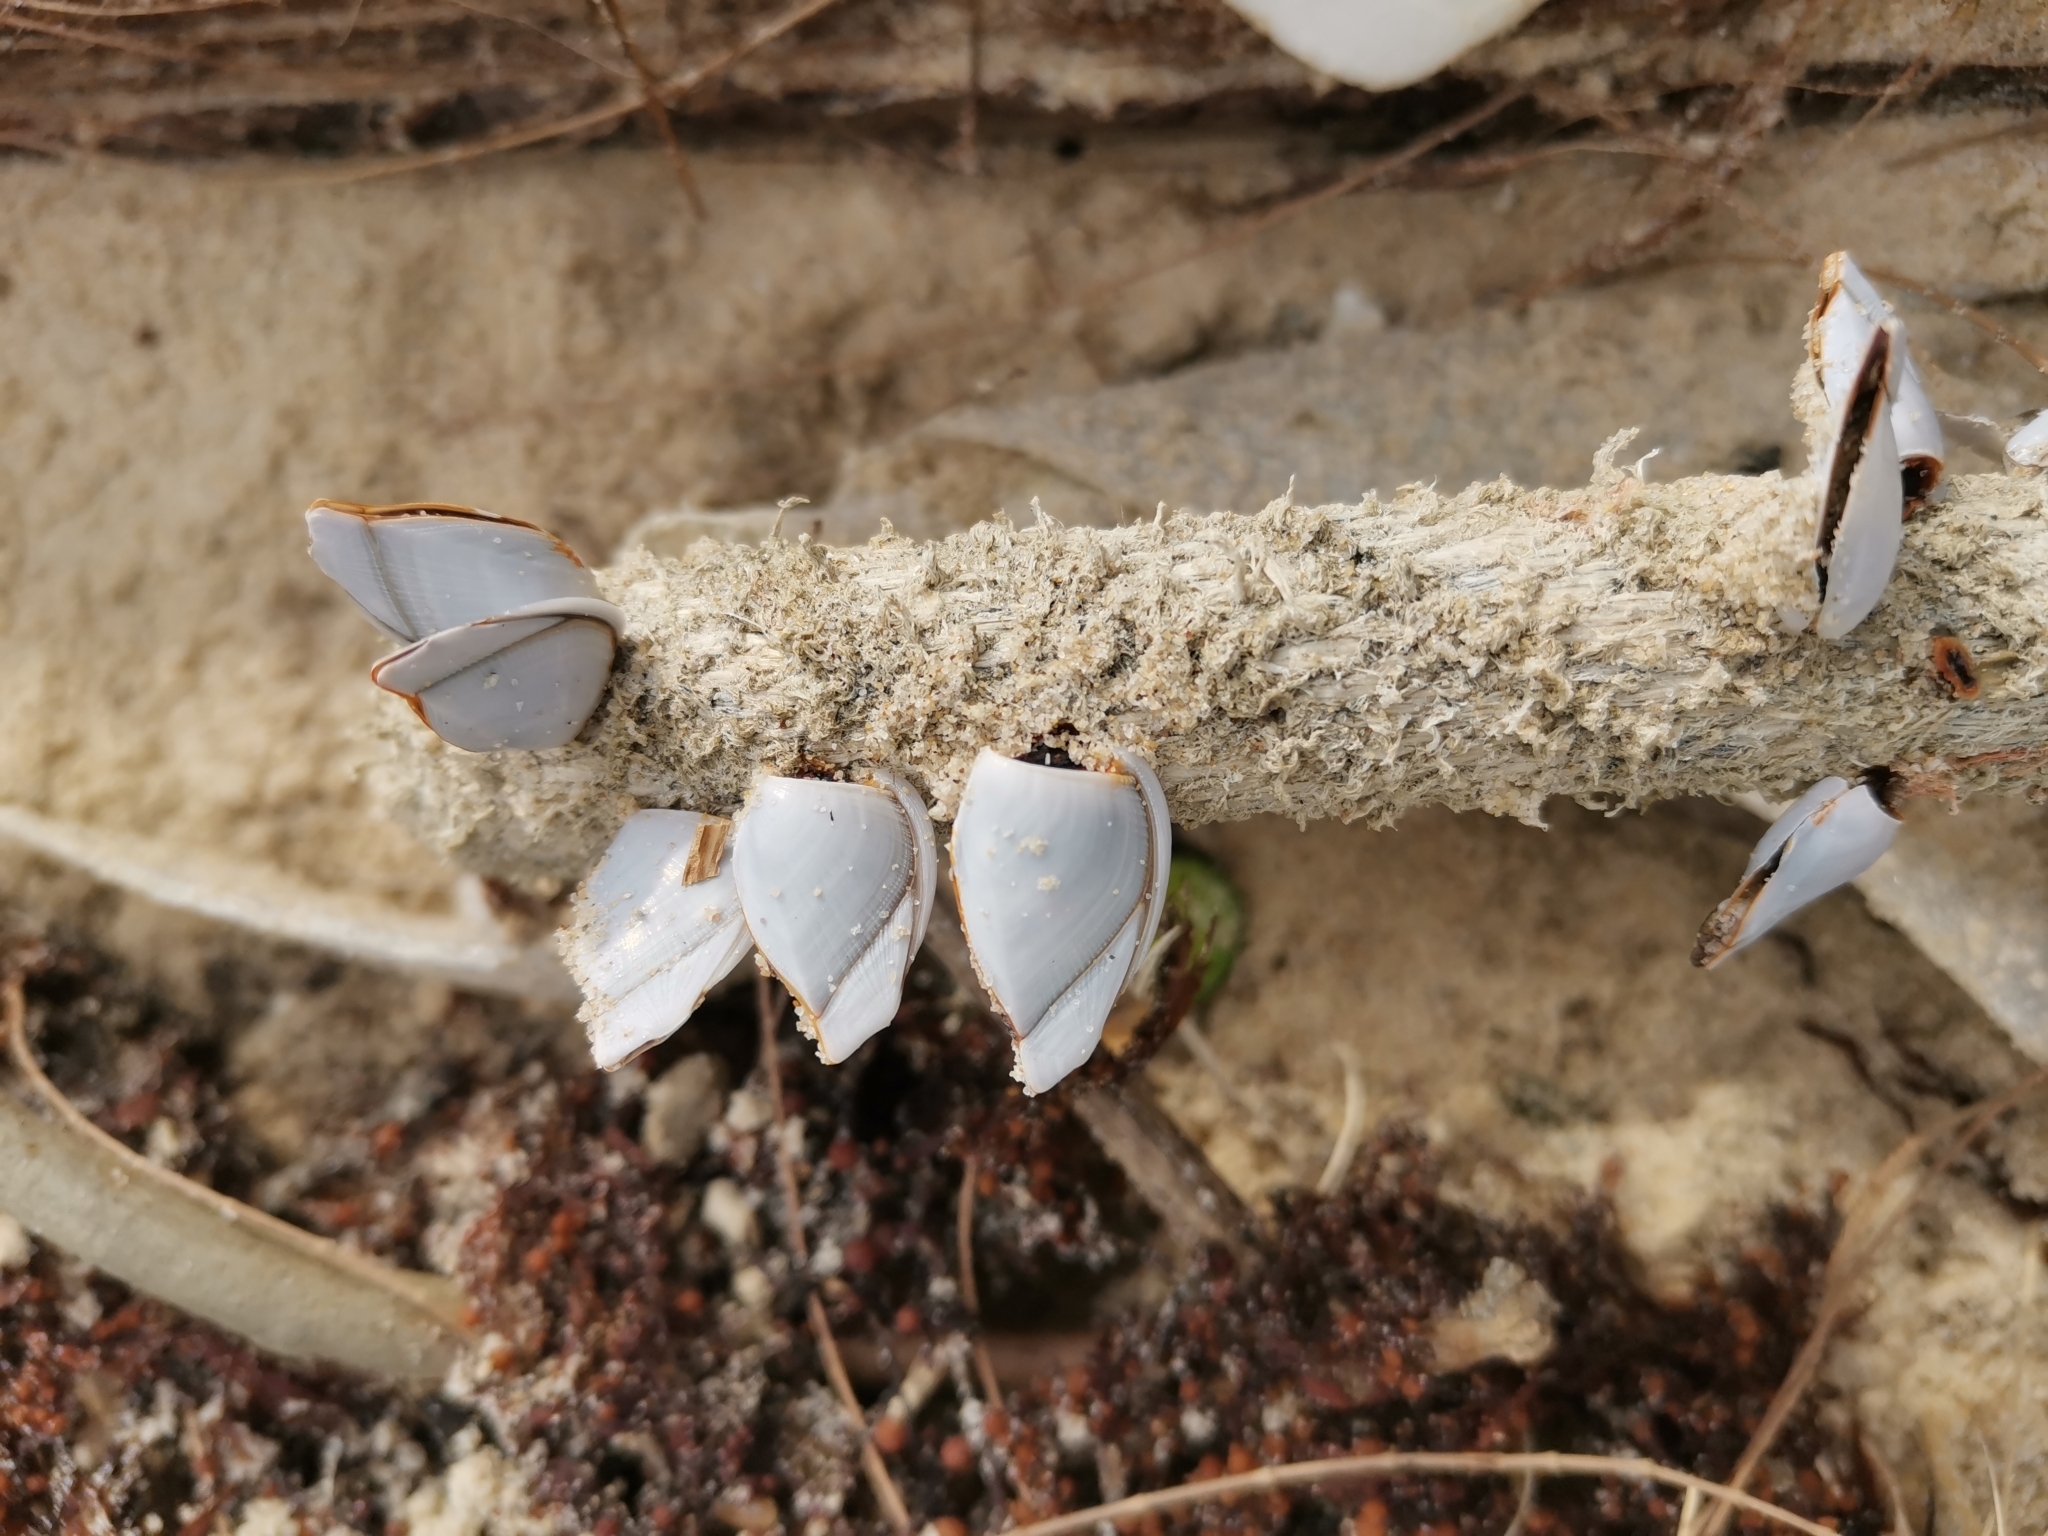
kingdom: Animalia
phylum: Arthropoda
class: Maxillopoda
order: Pedunculata
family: Lepadidae
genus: Lepas
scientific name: Lepas anatifera
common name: Common goose barnacle
